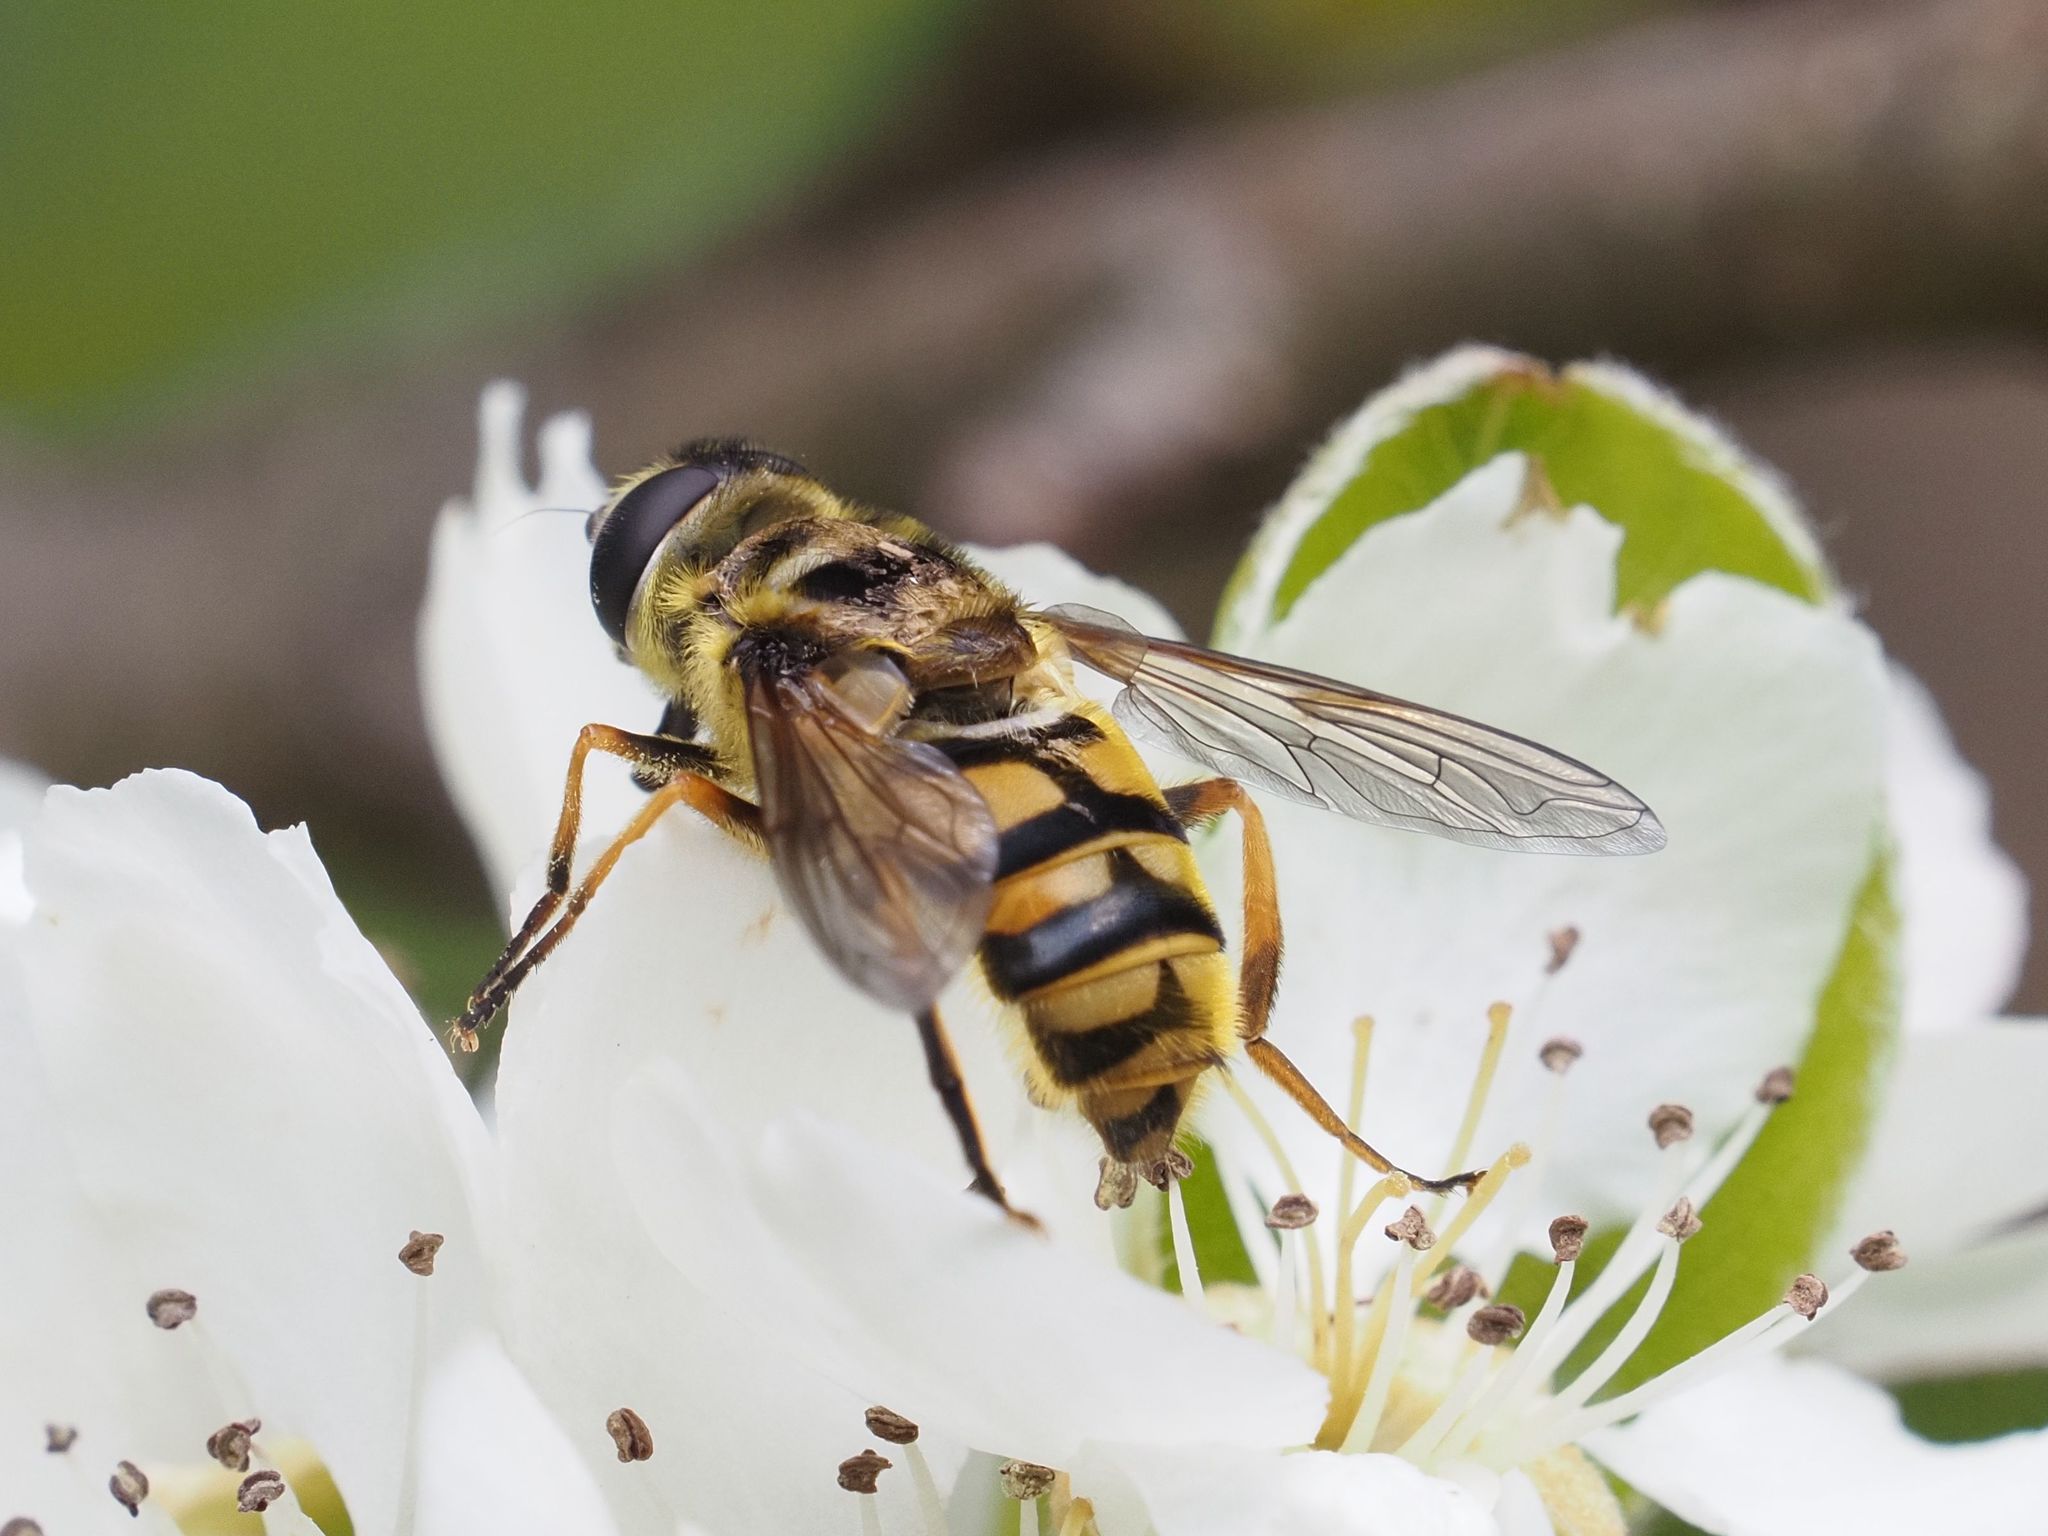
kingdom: Animalia
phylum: Arthropoda
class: Insecta
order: Diptera
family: Syrphidae
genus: Myathropa
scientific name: Myathropa florea
